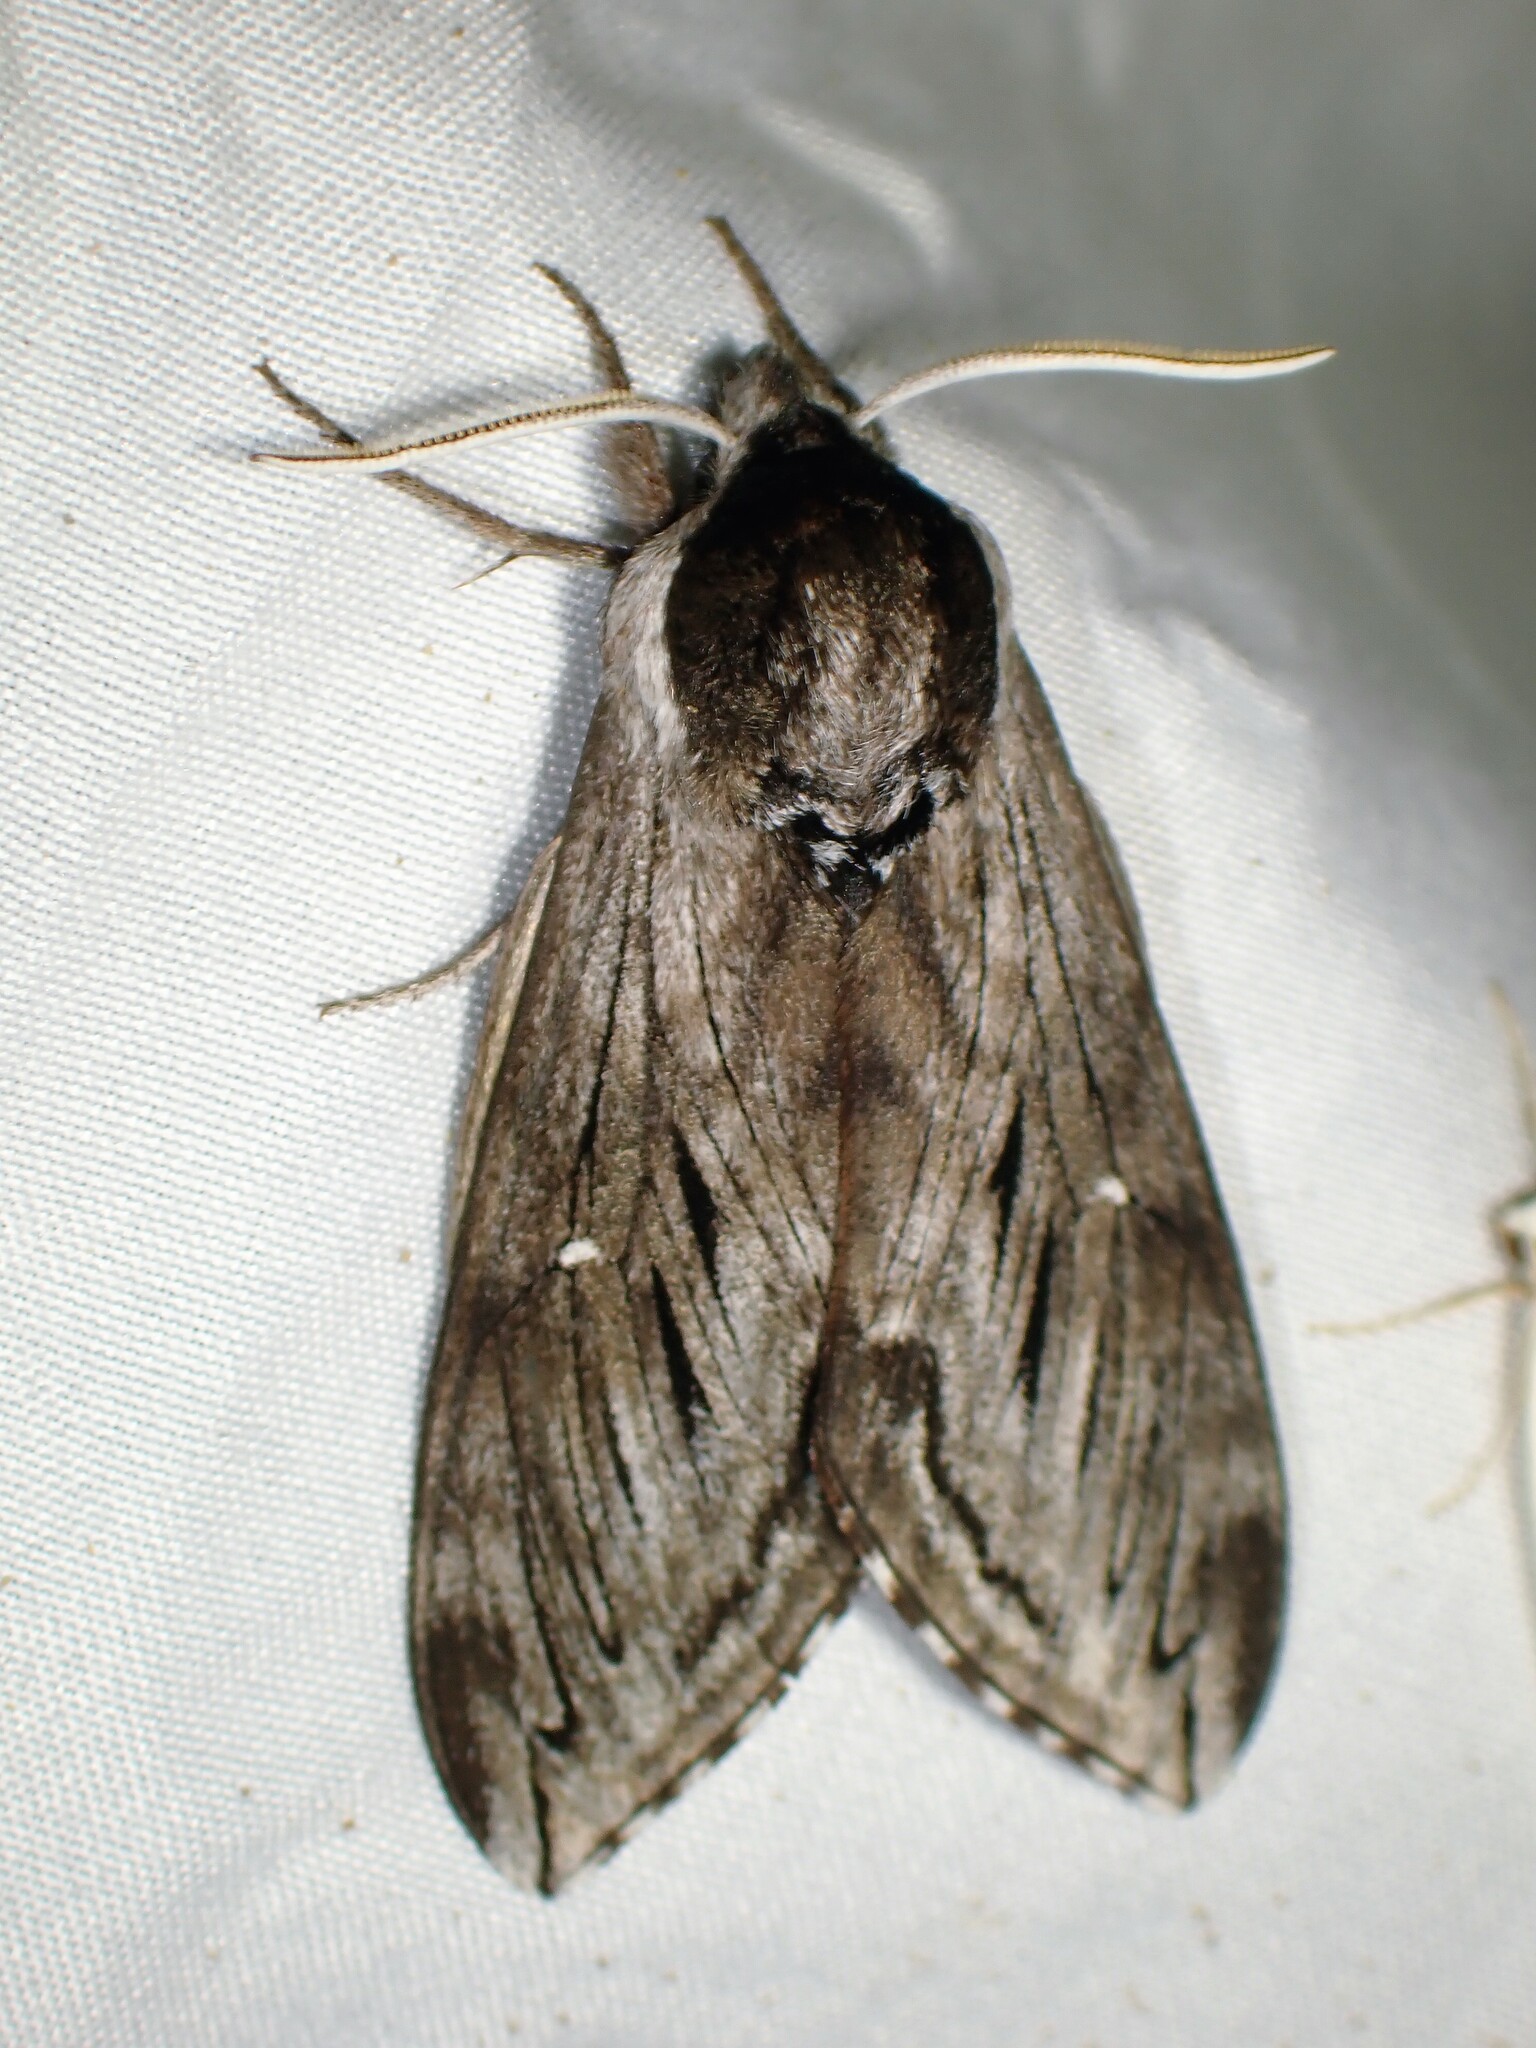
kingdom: Animalia
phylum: Arthropoda
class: Insecta
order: Lepidoptera
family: Sphingidae
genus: Sphinx
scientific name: Sphinx poecila
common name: Northern apple sphinx
